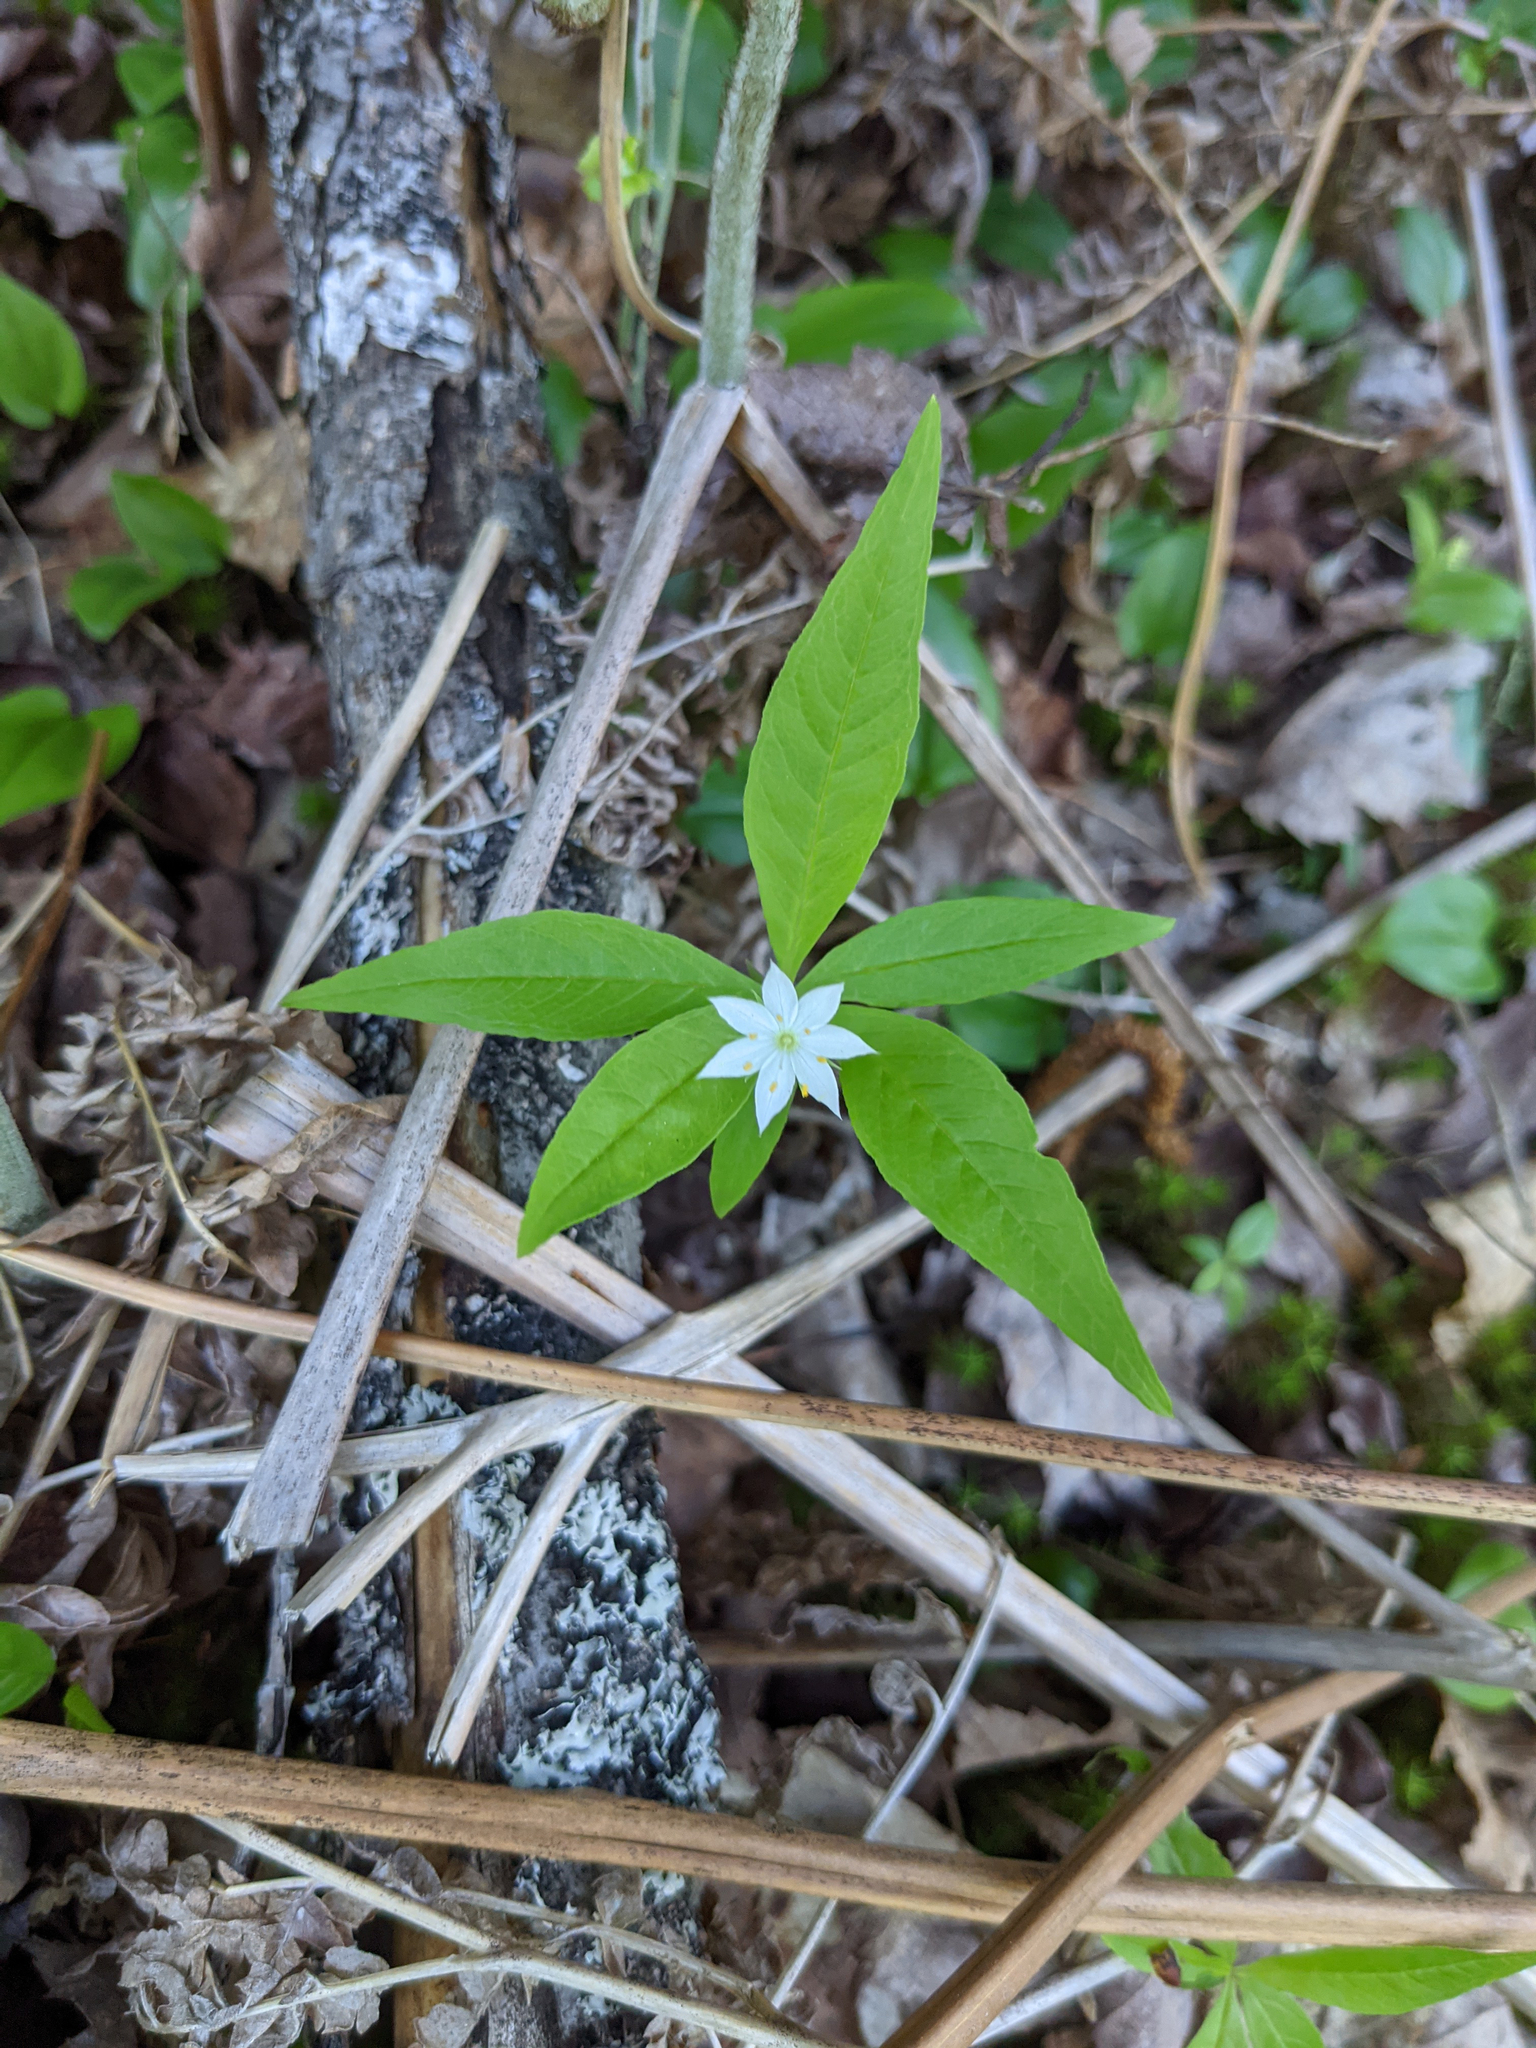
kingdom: Plantae
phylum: Tracheophyta
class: Magnoliopsida
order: Ericales
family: Primulaceae
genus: Lysimachia
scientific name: Lysimachia borealis
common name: American starflower
